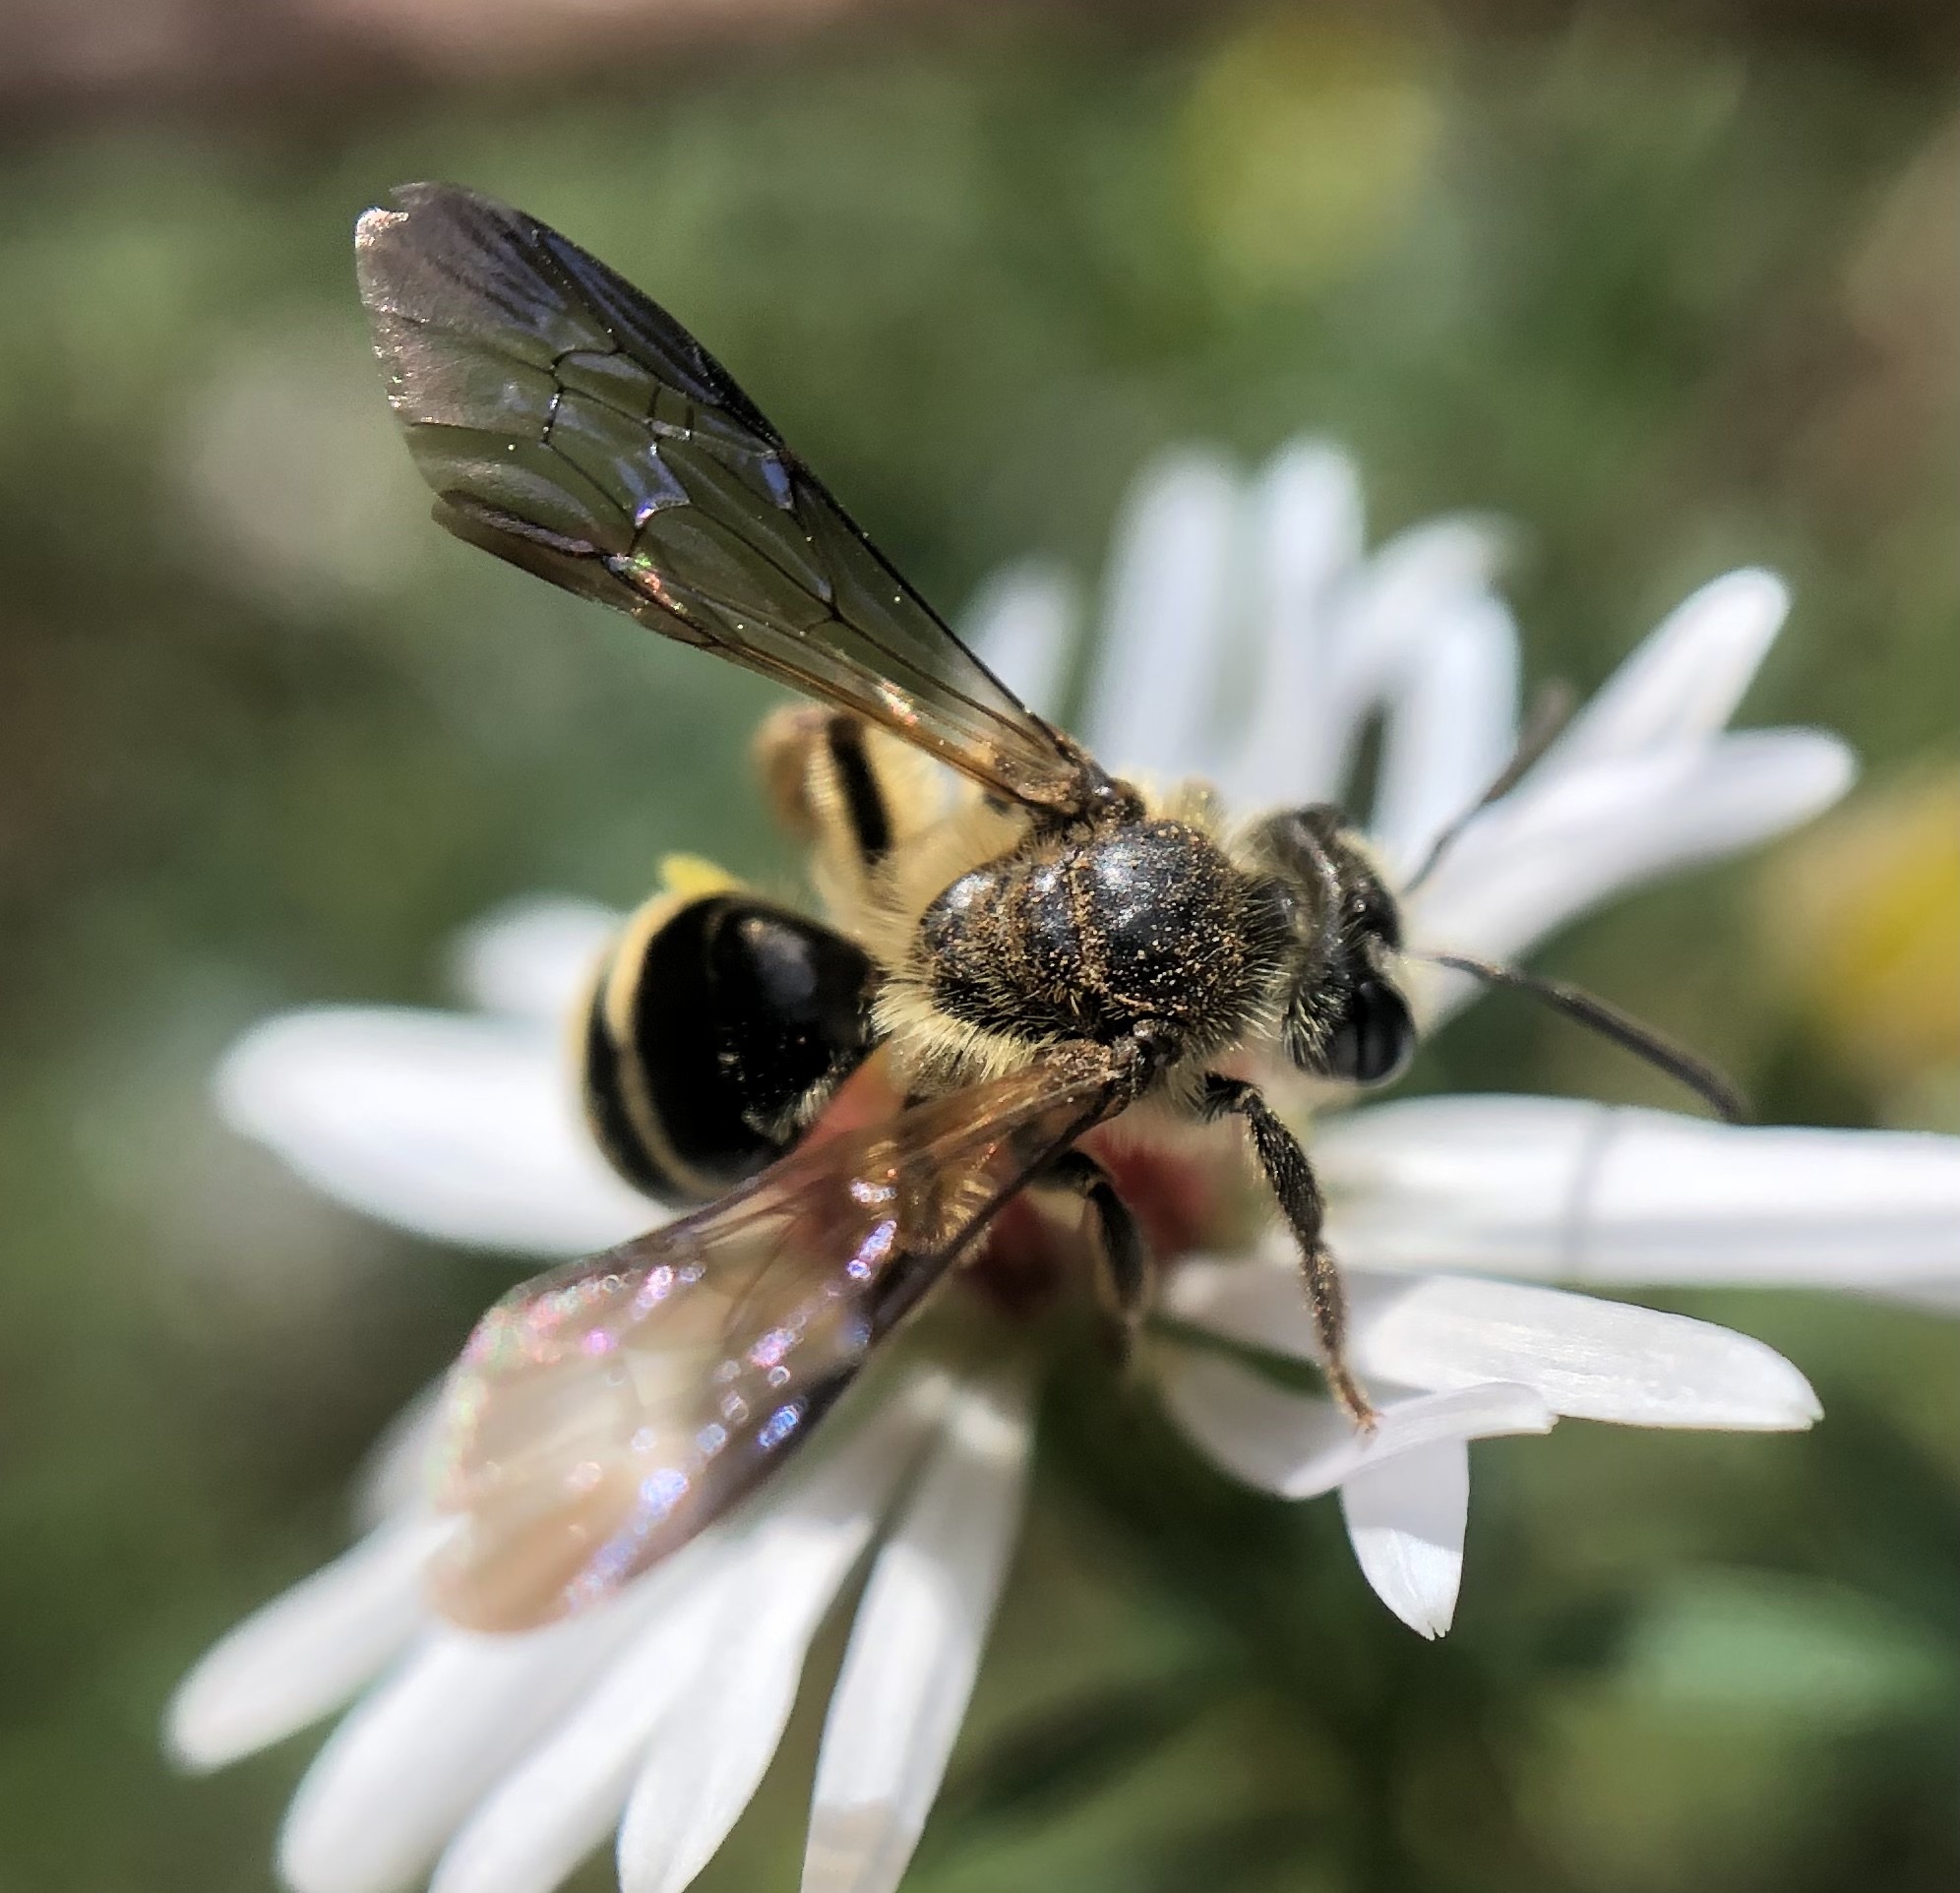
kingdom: Animalia
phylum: Arthropoda
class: Insecta
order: Hymenoptera
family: Andrenidae
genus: Andrena
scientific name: Andrena nubecula
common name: Cloudy-winged mining bee
